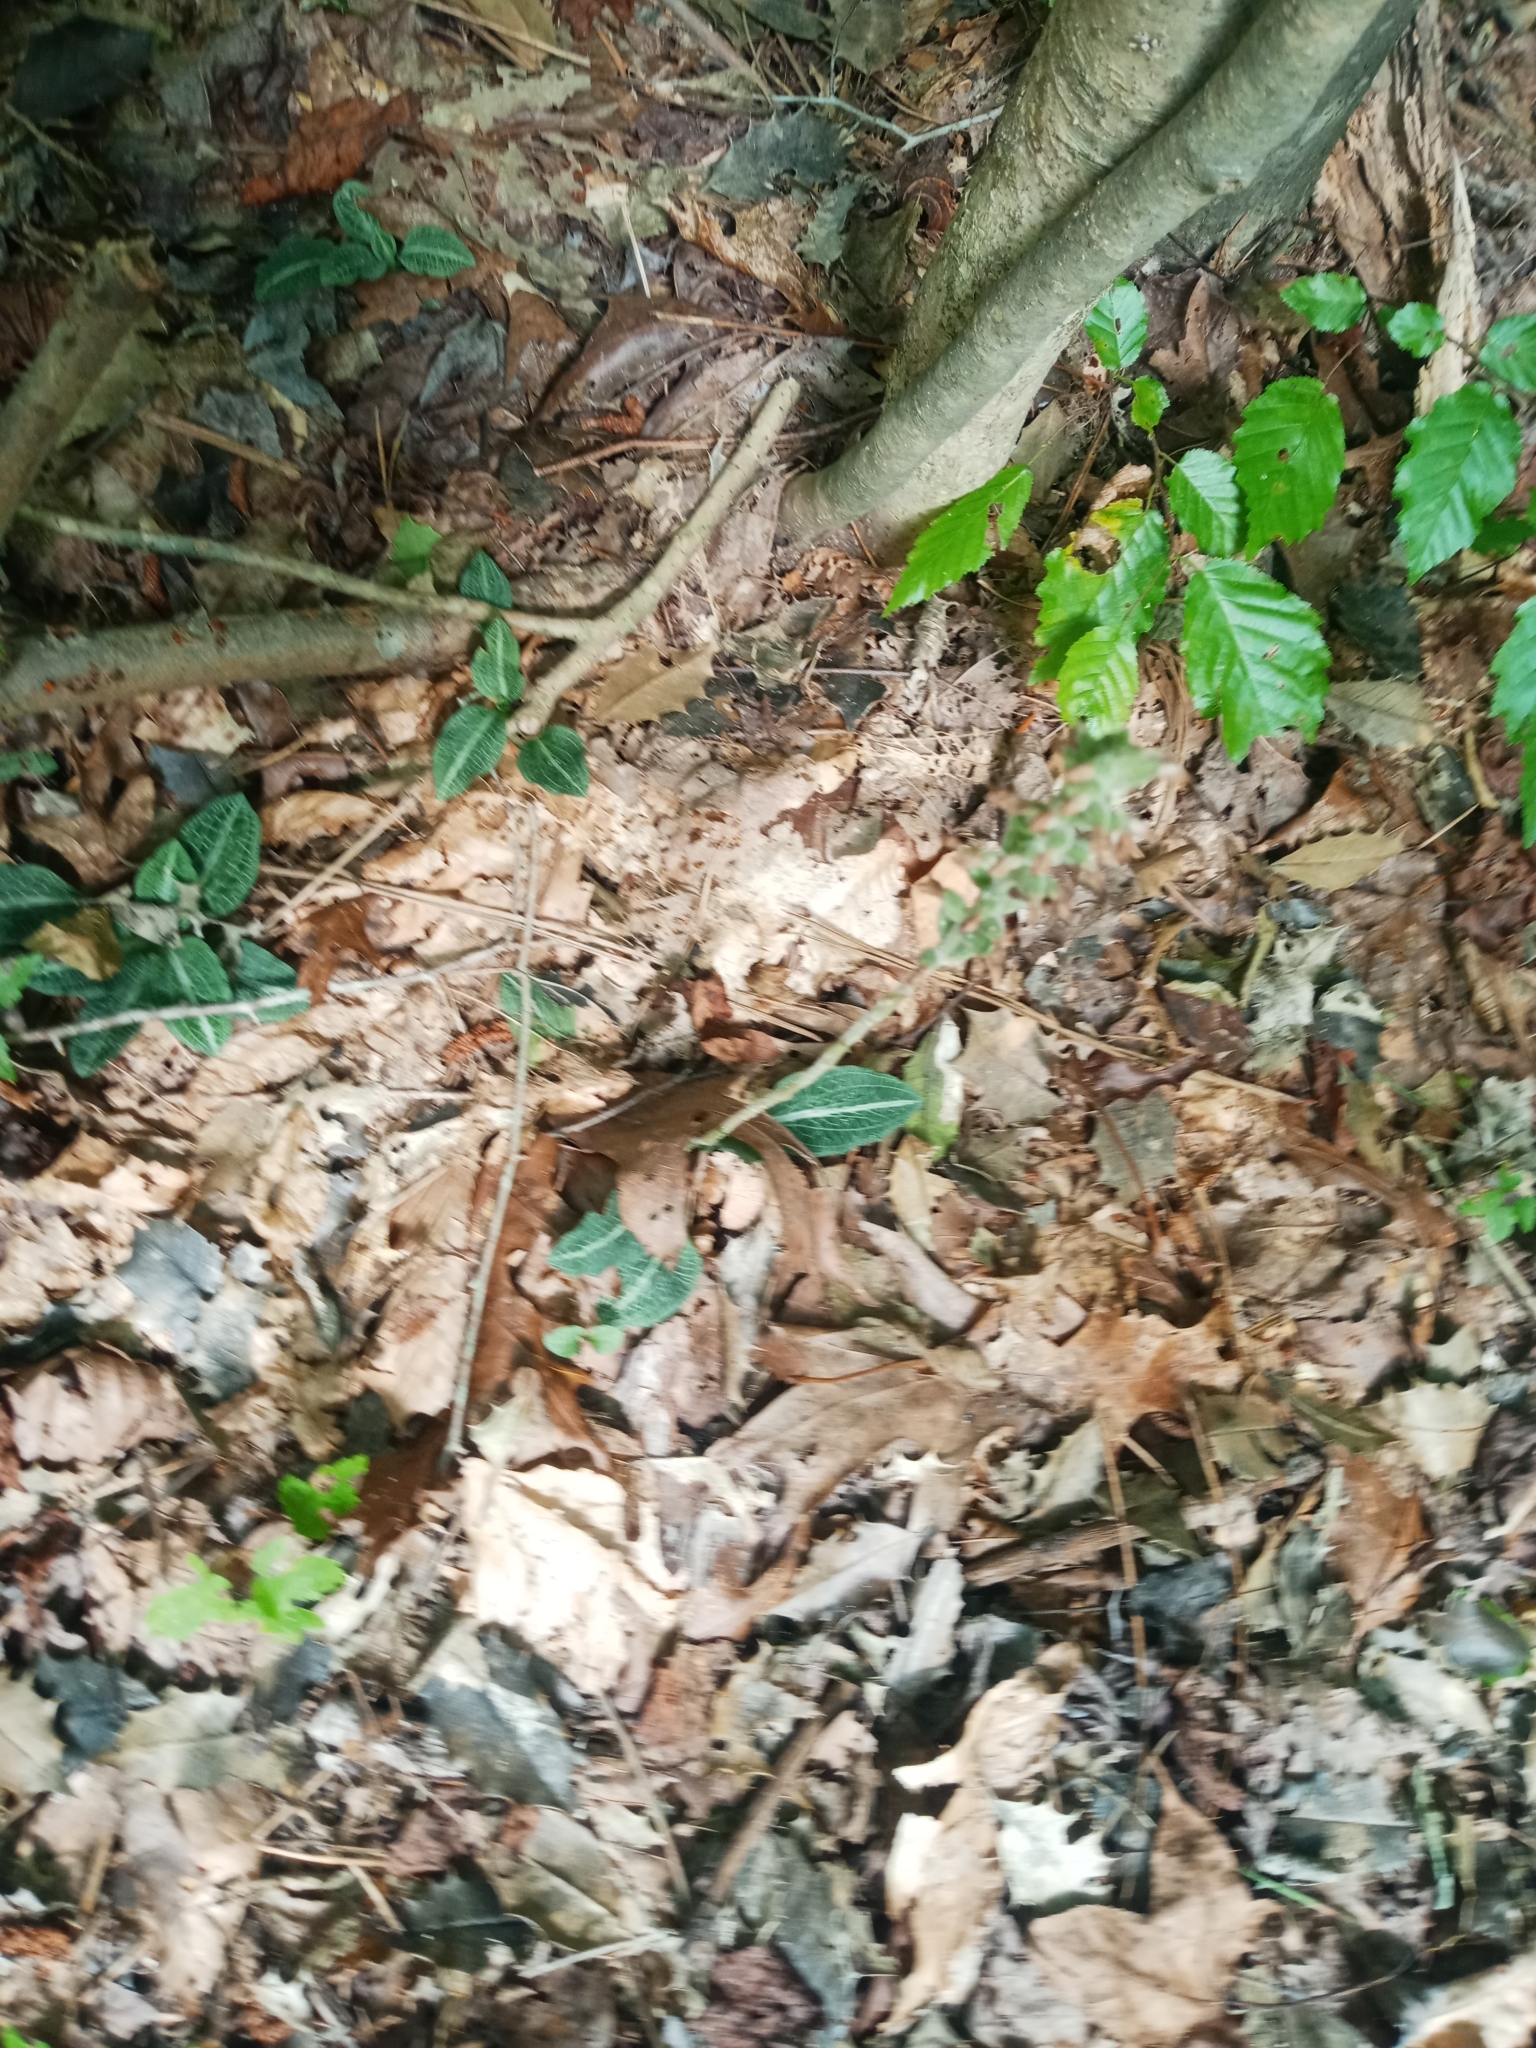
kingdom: Plantae
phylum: Tracheophyta
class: Liliopsida
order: Asparagales
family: Orchidaceae
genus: Goodyera
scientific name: Goodyera pubescens
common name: Downy rattlesnake-plantain
